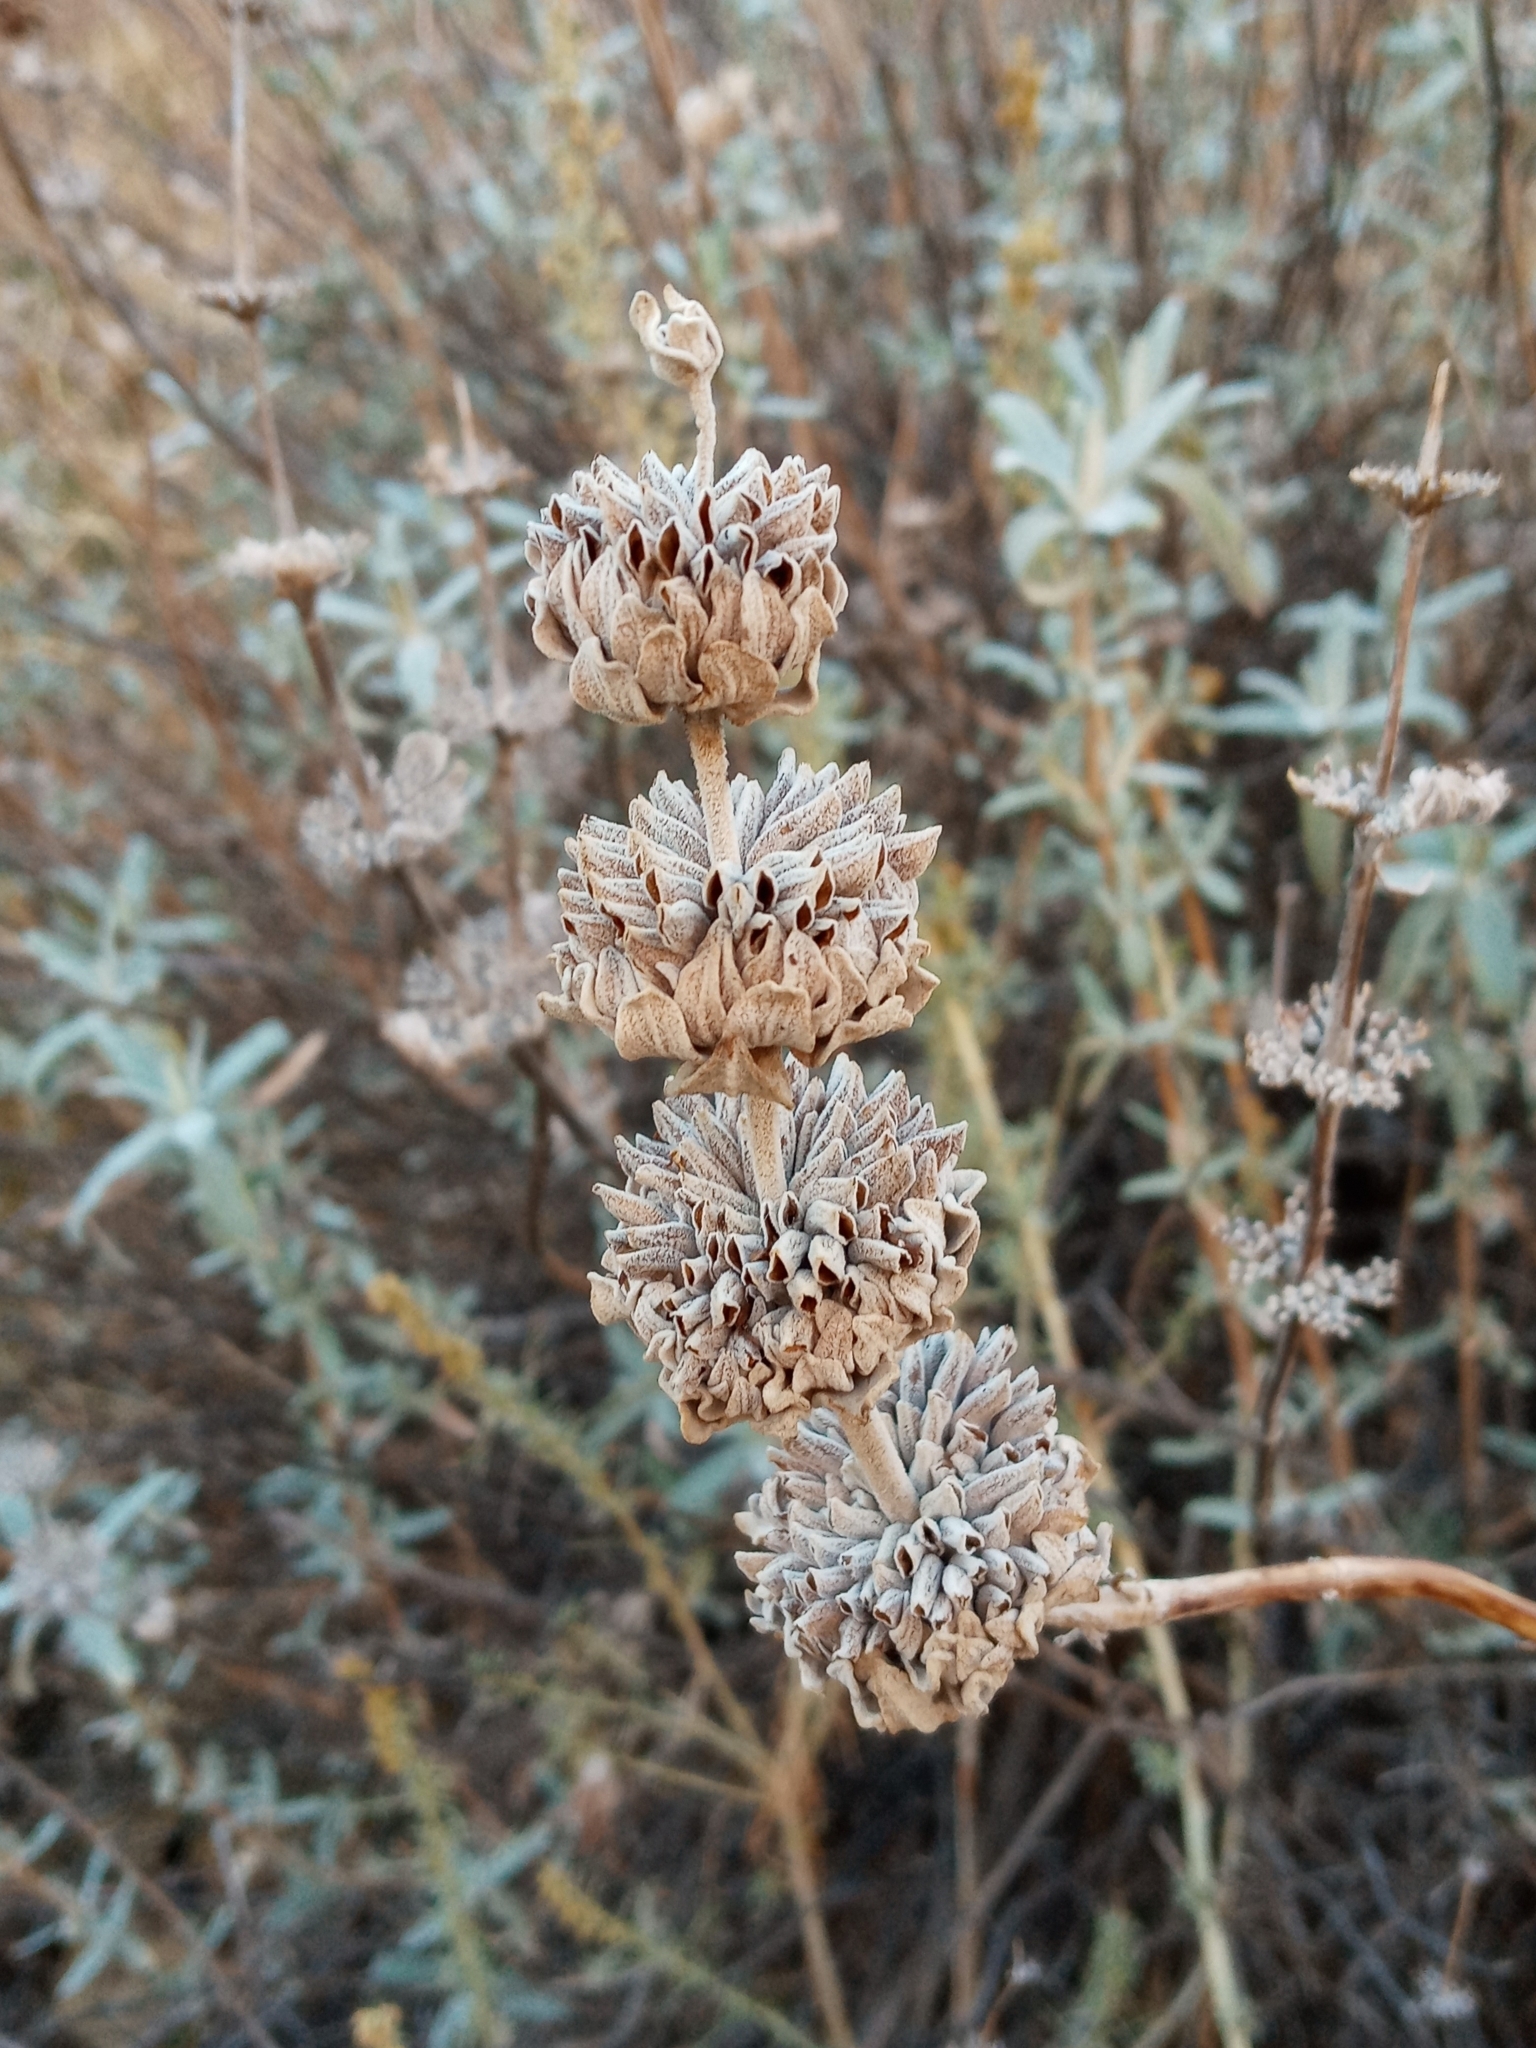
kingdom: Plantae
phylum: Tracheophyta
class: Magnoliopsida
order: Lamiales
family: Lamiaceae
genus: Salvia
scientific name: Salvia leucophylla
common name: Purple sage
